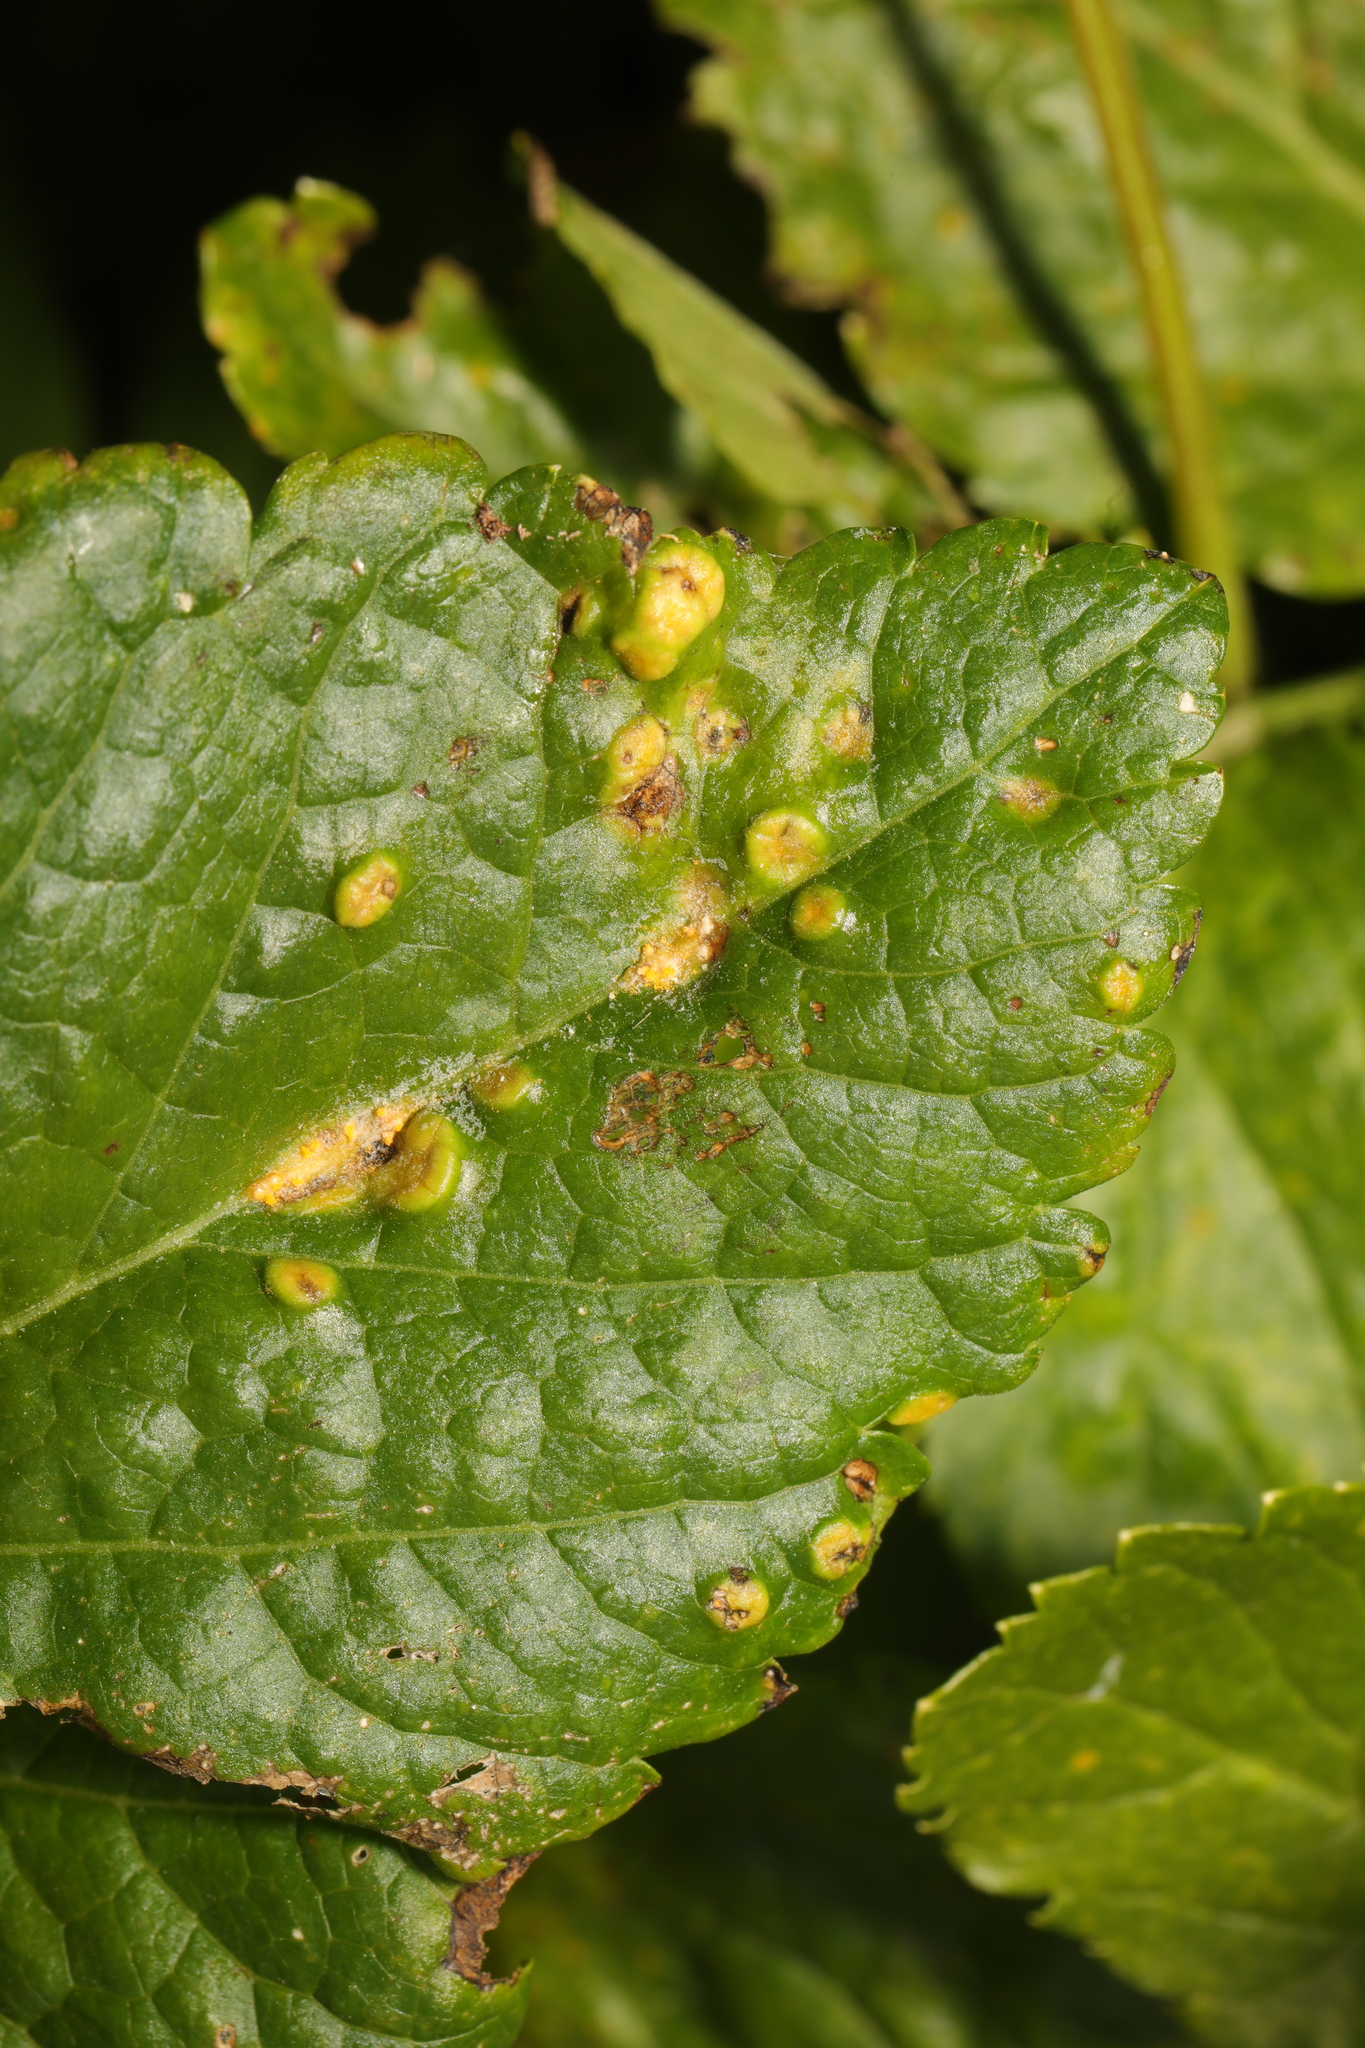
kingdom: Fungi
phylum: Basidiomycota
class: Pucciniomycetes
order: Pucciniales
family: Pucciniaceae
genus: Puccinia
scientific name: Puccinia smyrnii
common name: Alexanders rust
